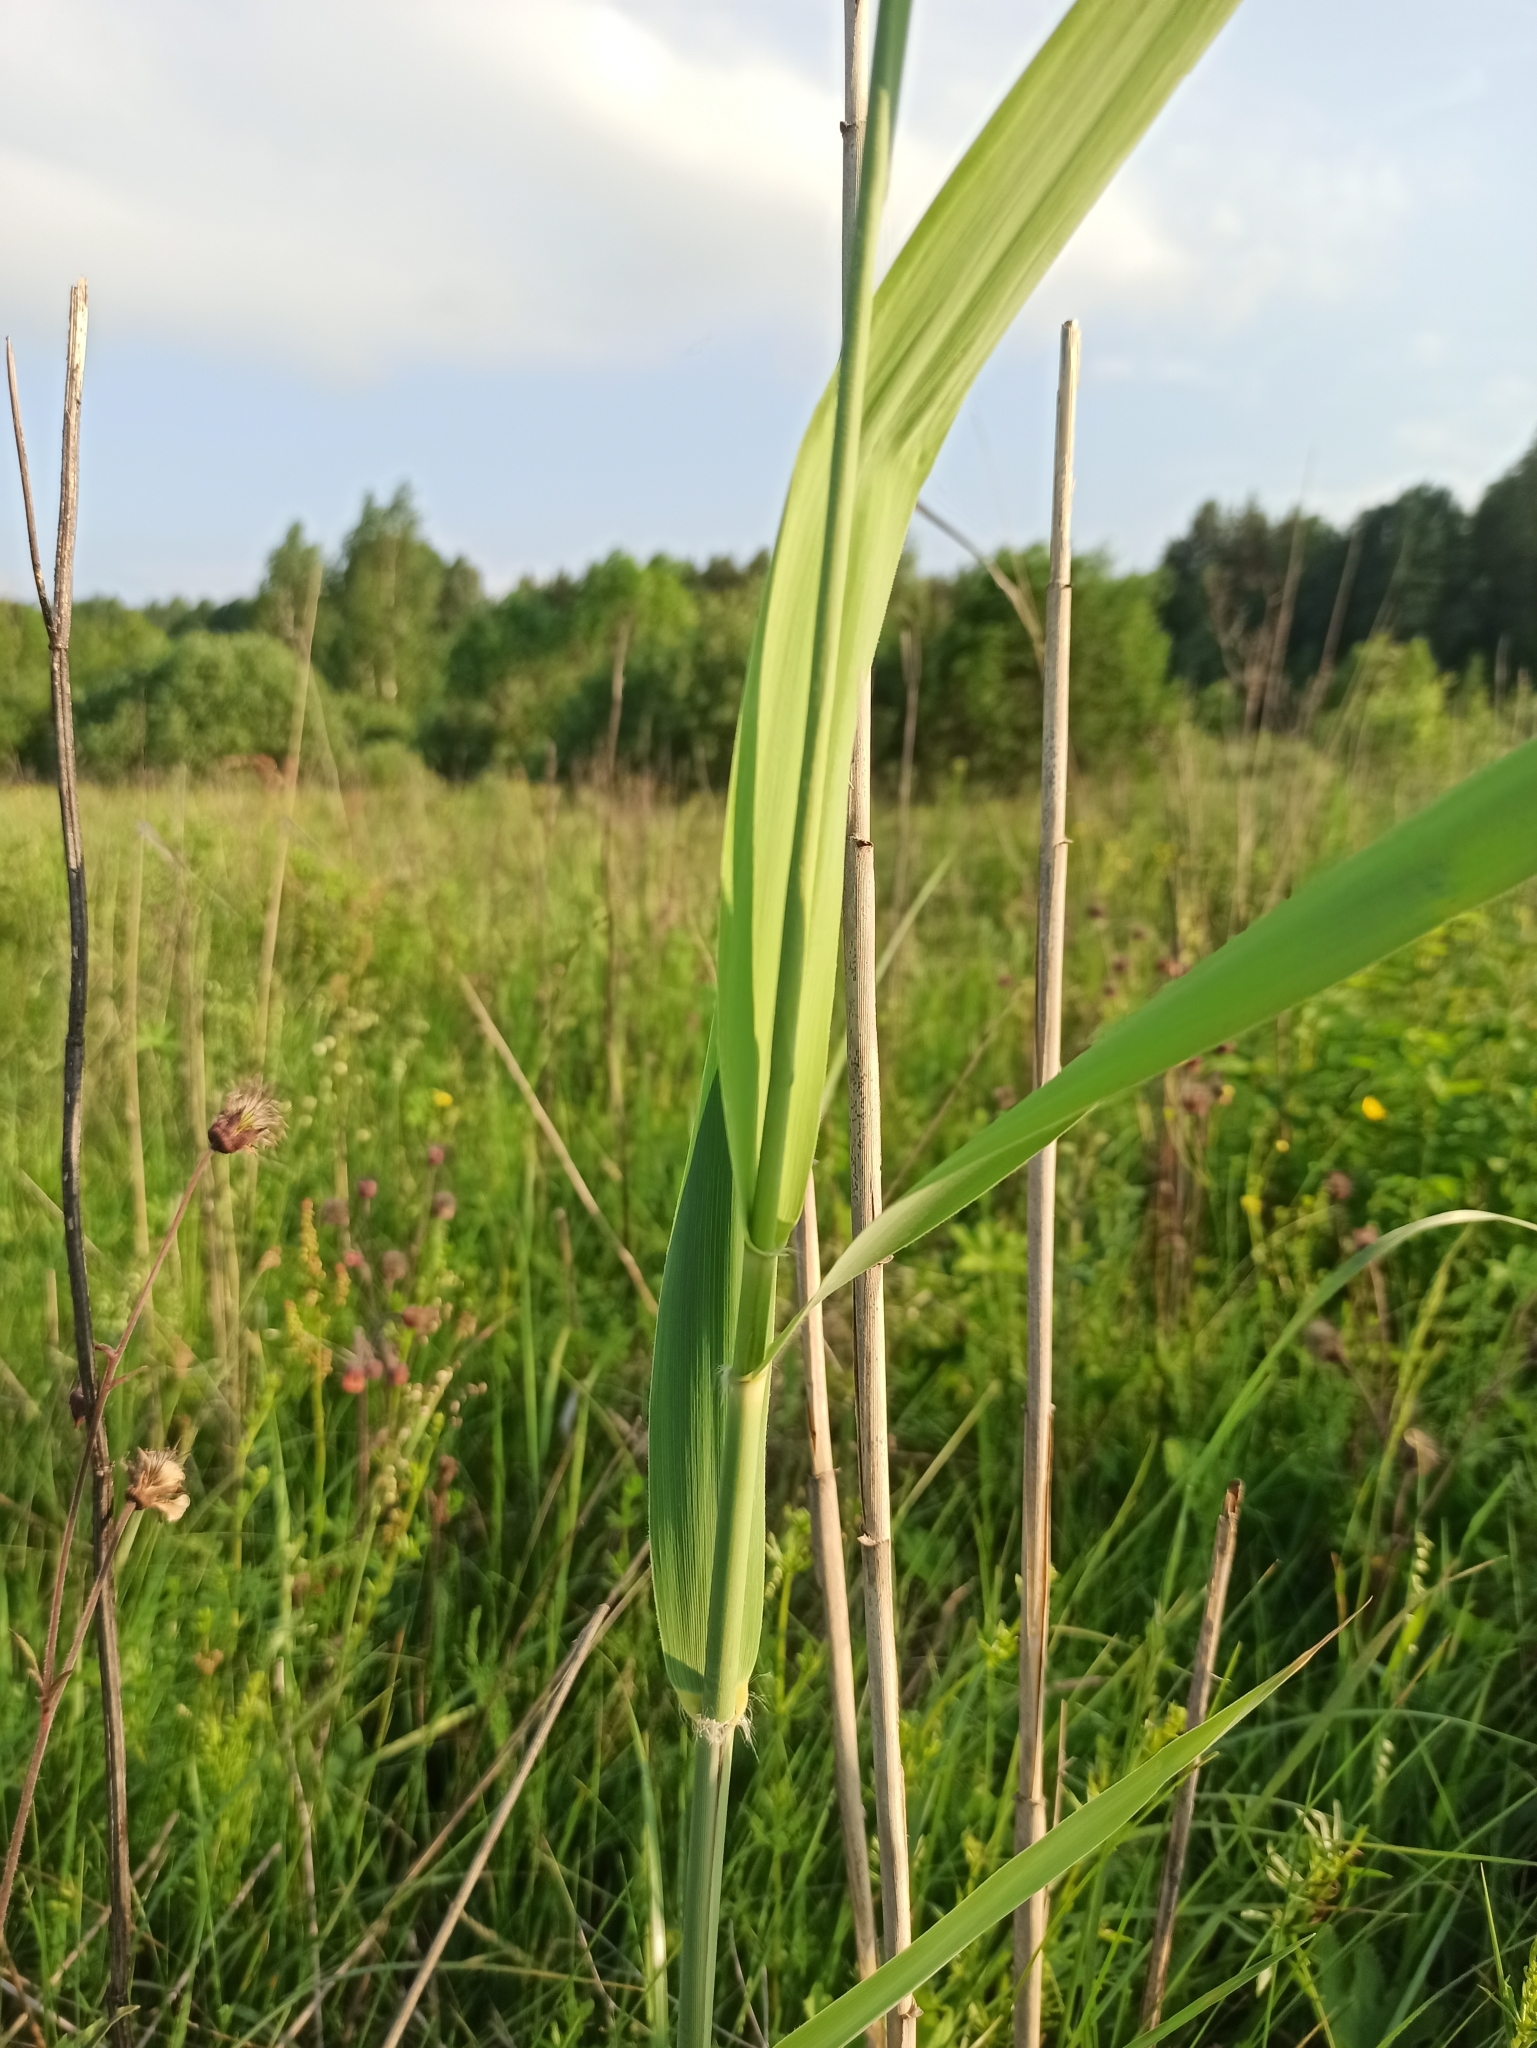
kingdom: Plantae
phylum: Tracheophyta
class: Liliopsida
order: Poales
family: Poaceae
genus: Phragmites
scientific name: Phragmites australis
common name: Common reed
